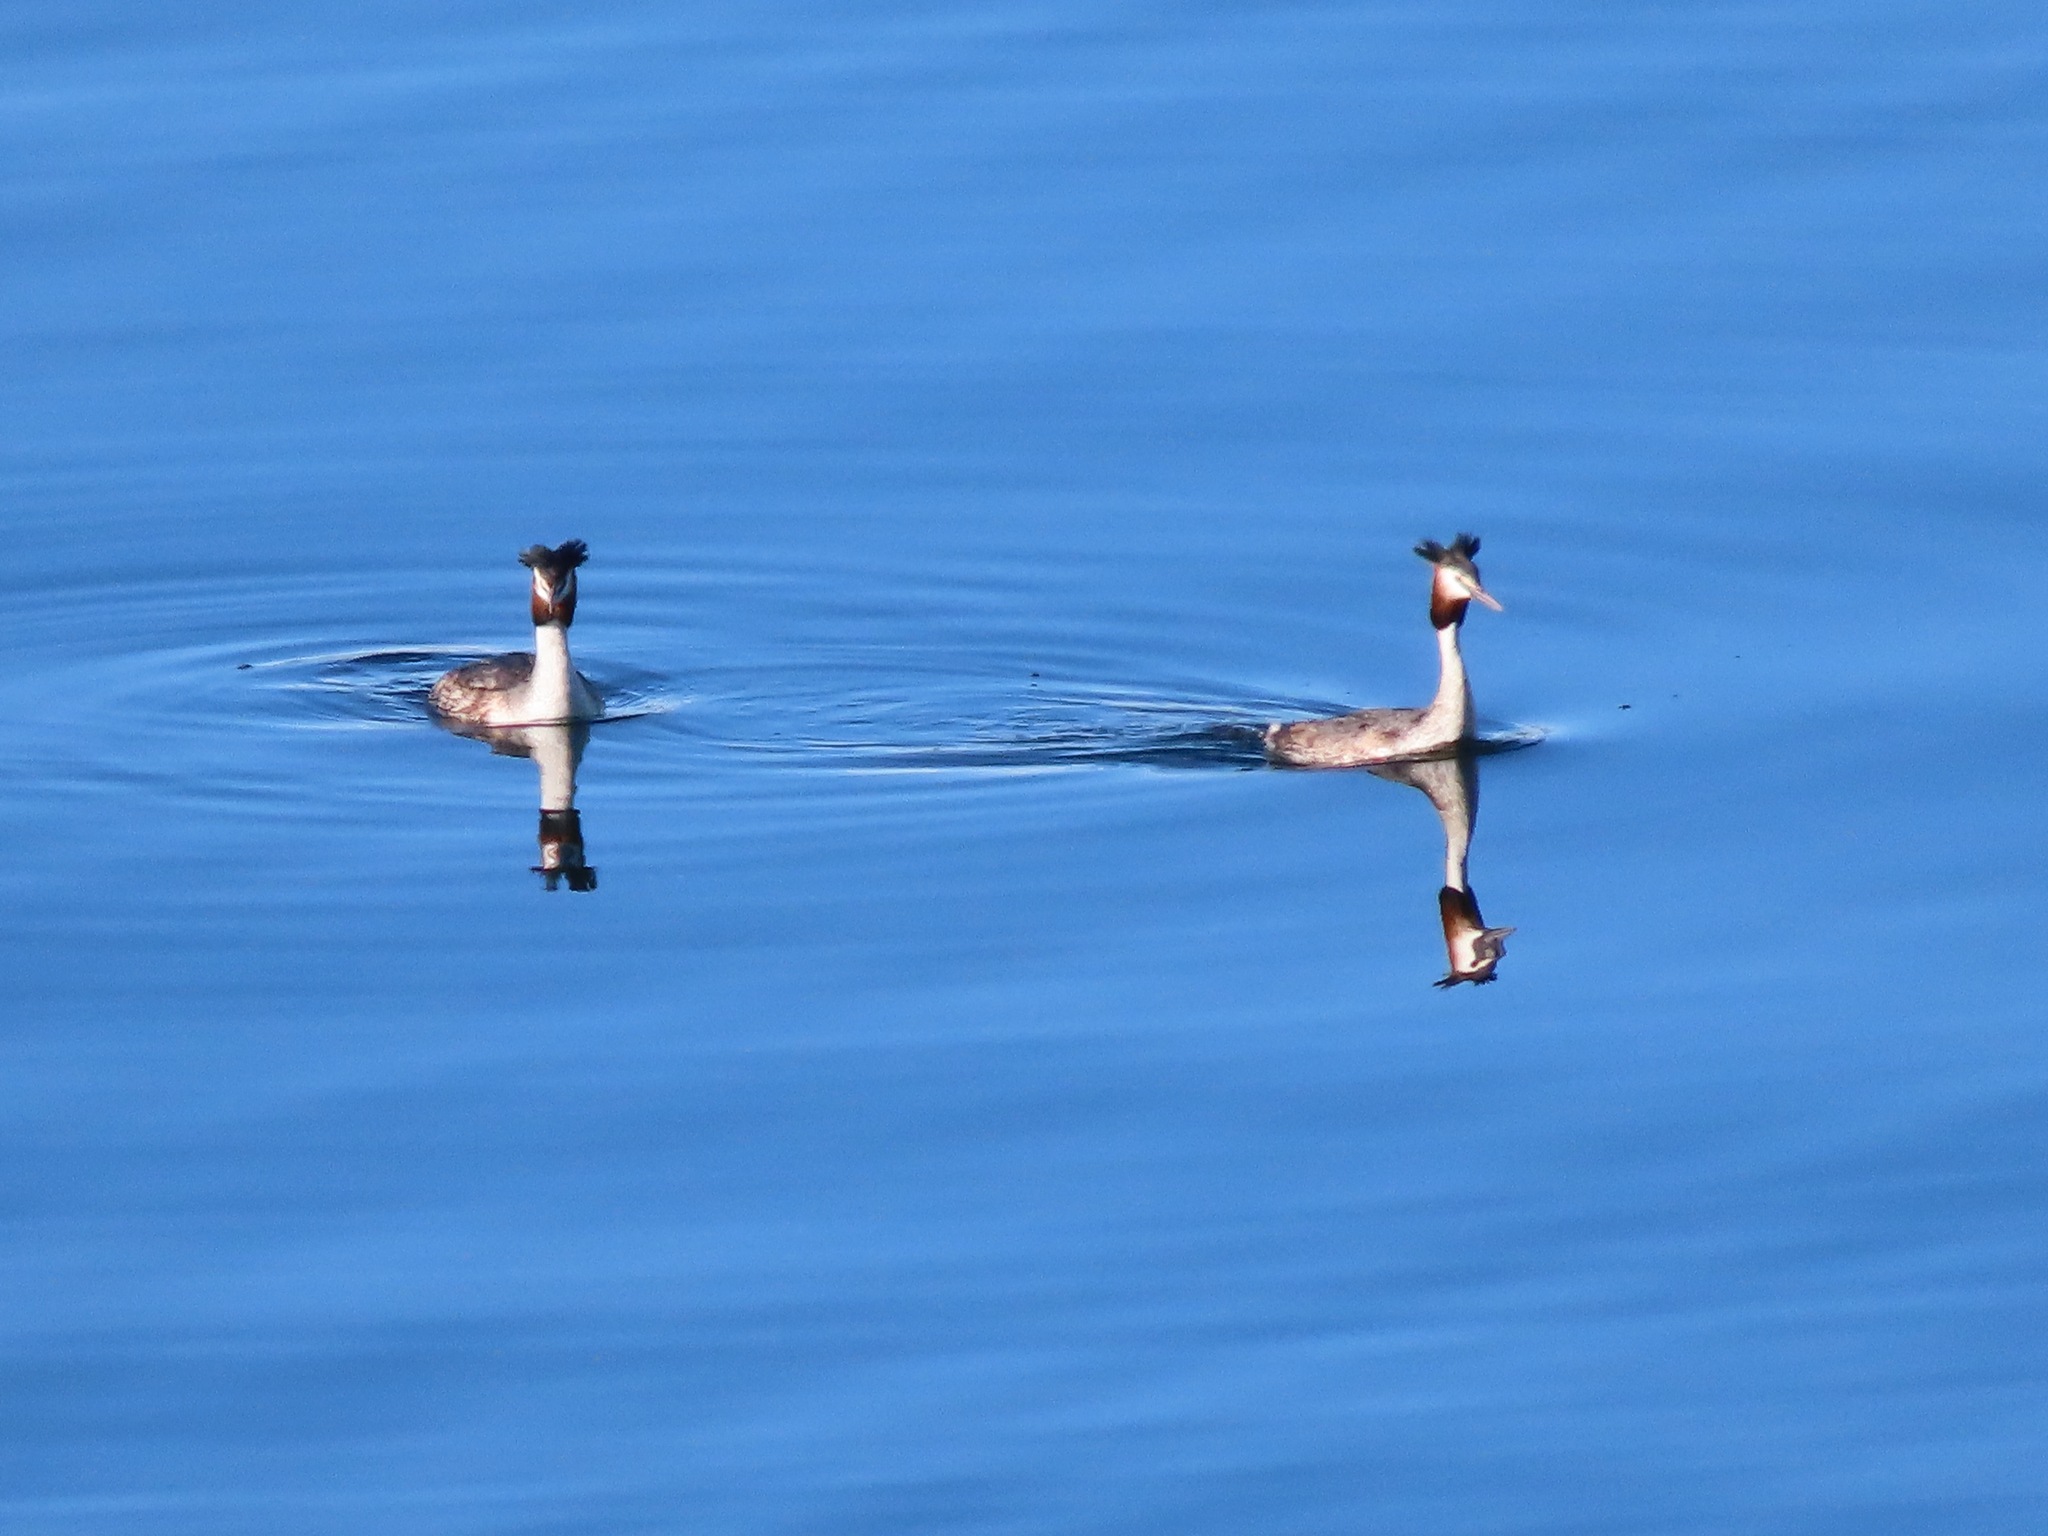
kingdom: Animalia
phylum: Chordata
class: Aves
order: Podicipediformes
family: Podicipedidae
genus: Podiceps
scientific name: Podiceps cristatus
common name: Great crested grebe
